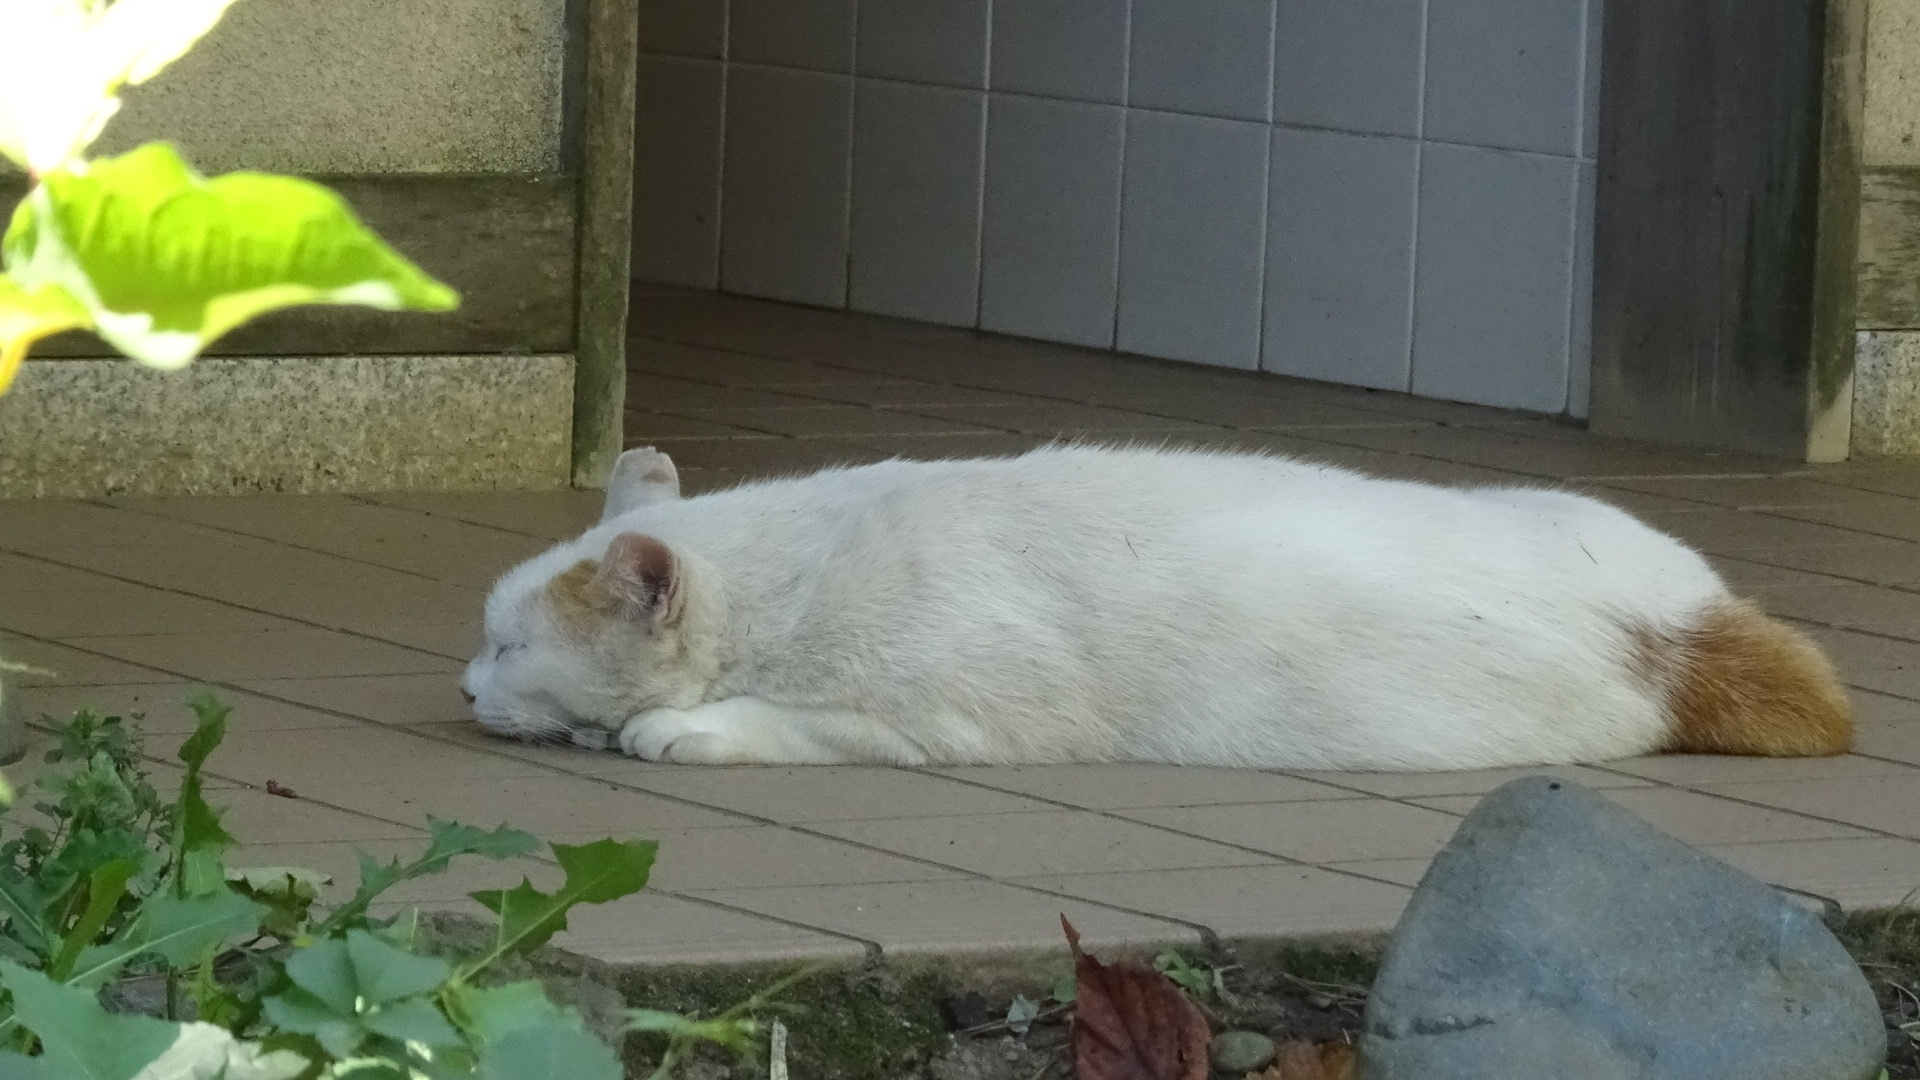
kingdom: Animalia
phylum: Chordata
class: Mammalia
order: Carnivora
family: Felidae
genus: Felis
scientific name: Felis catus
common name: Domestic cat
